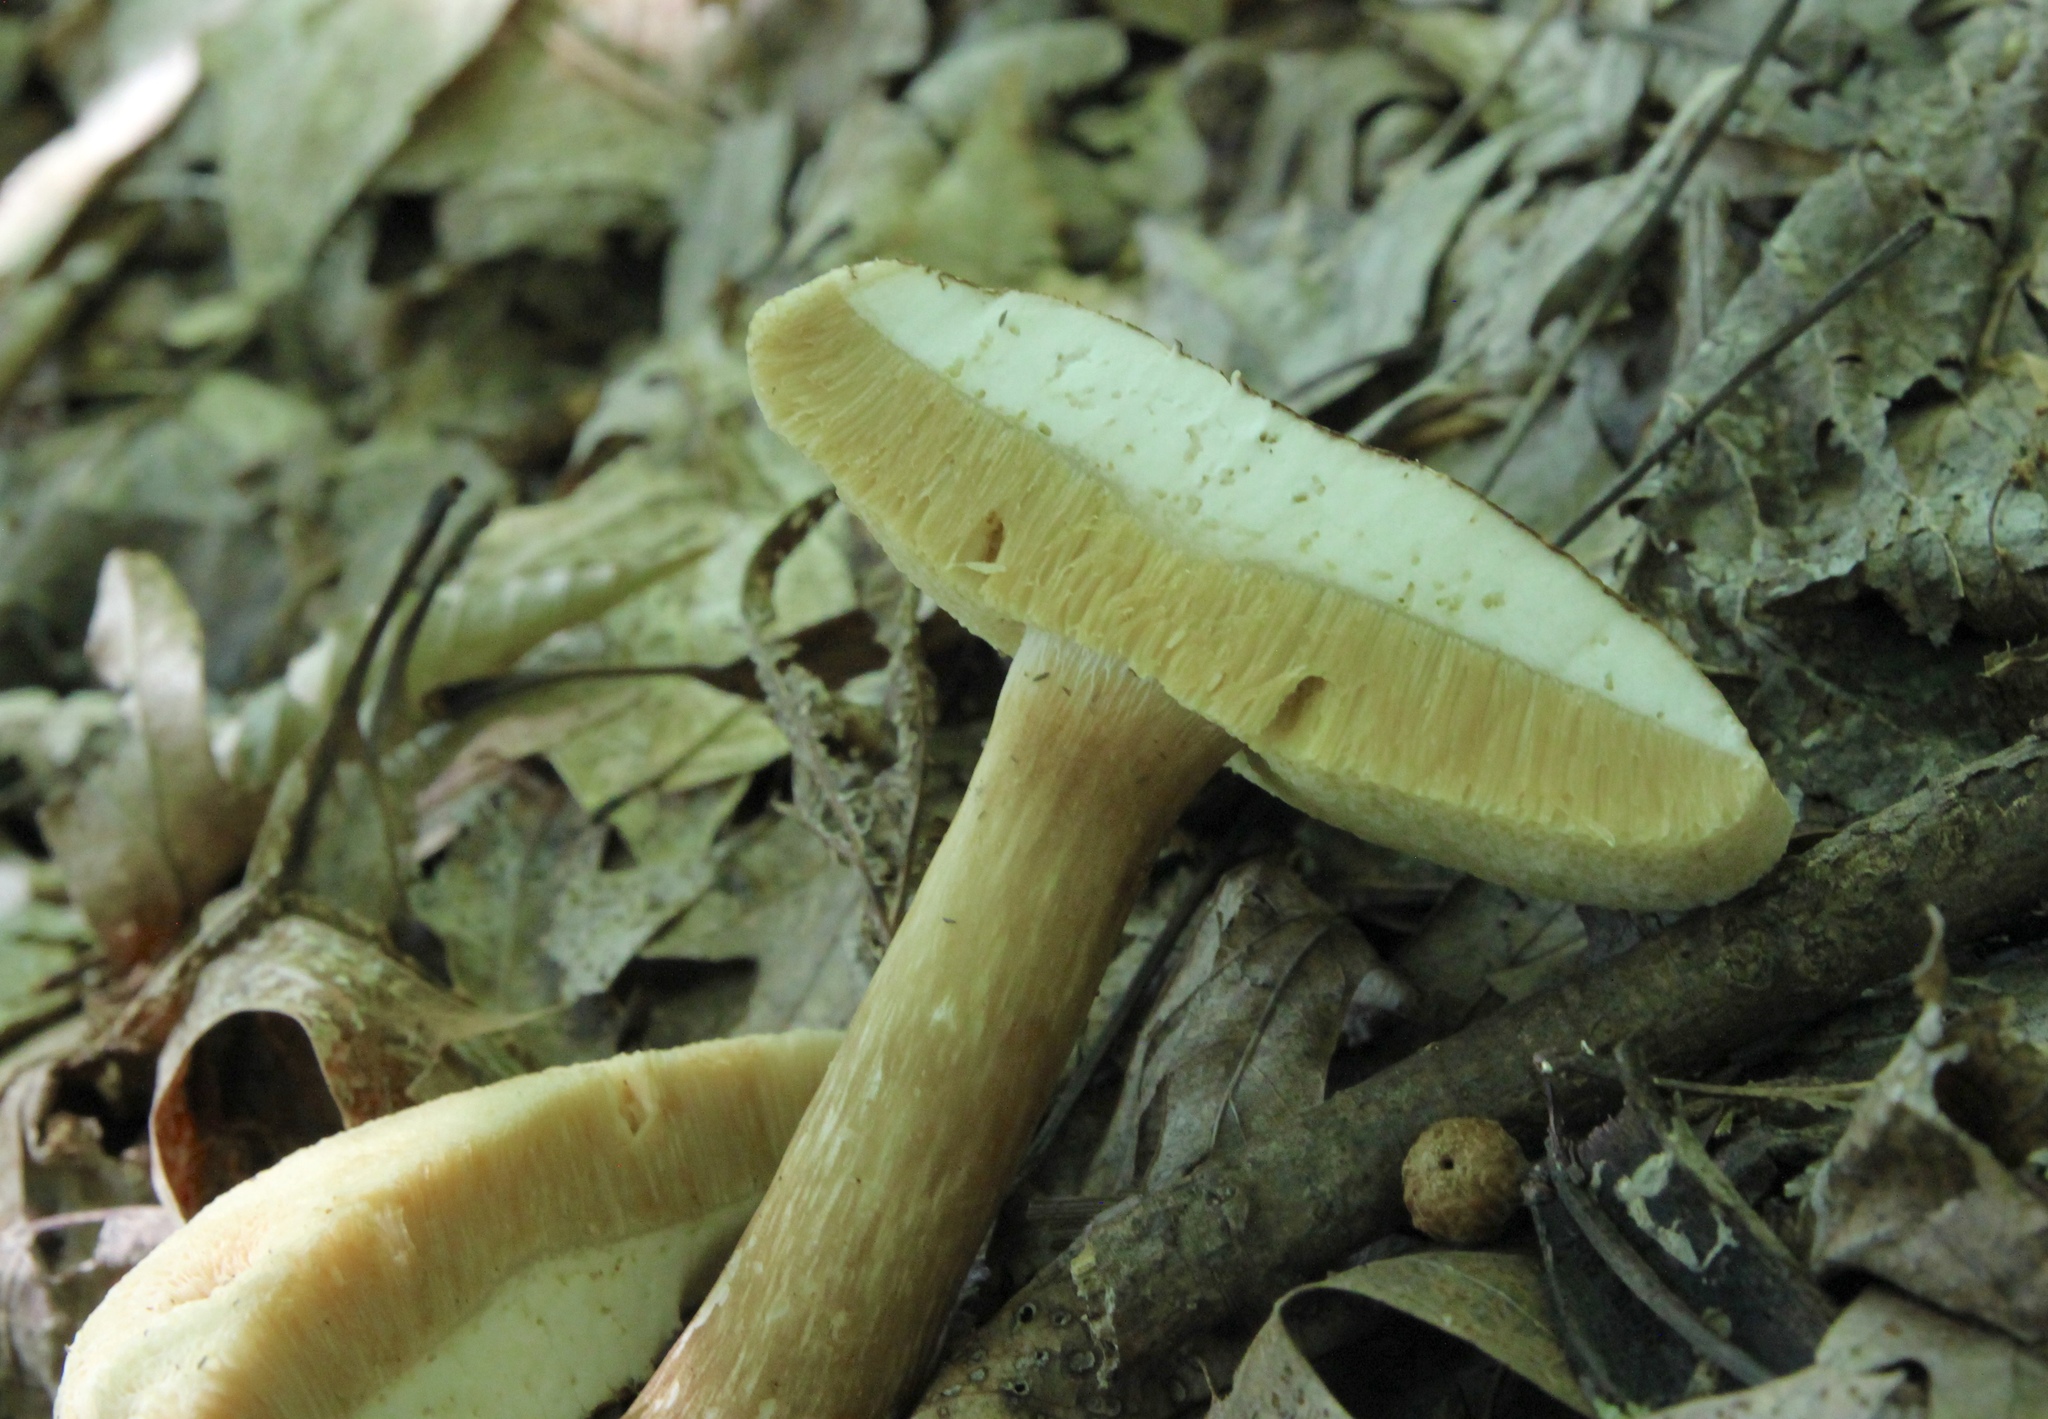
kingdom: Fungi
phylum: Basidiomycota
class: Agaricomycetes
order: Boletales
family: Boletaceae
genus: Xanthoconium
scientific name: Xanthoconium affine
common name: Spotted bolete
